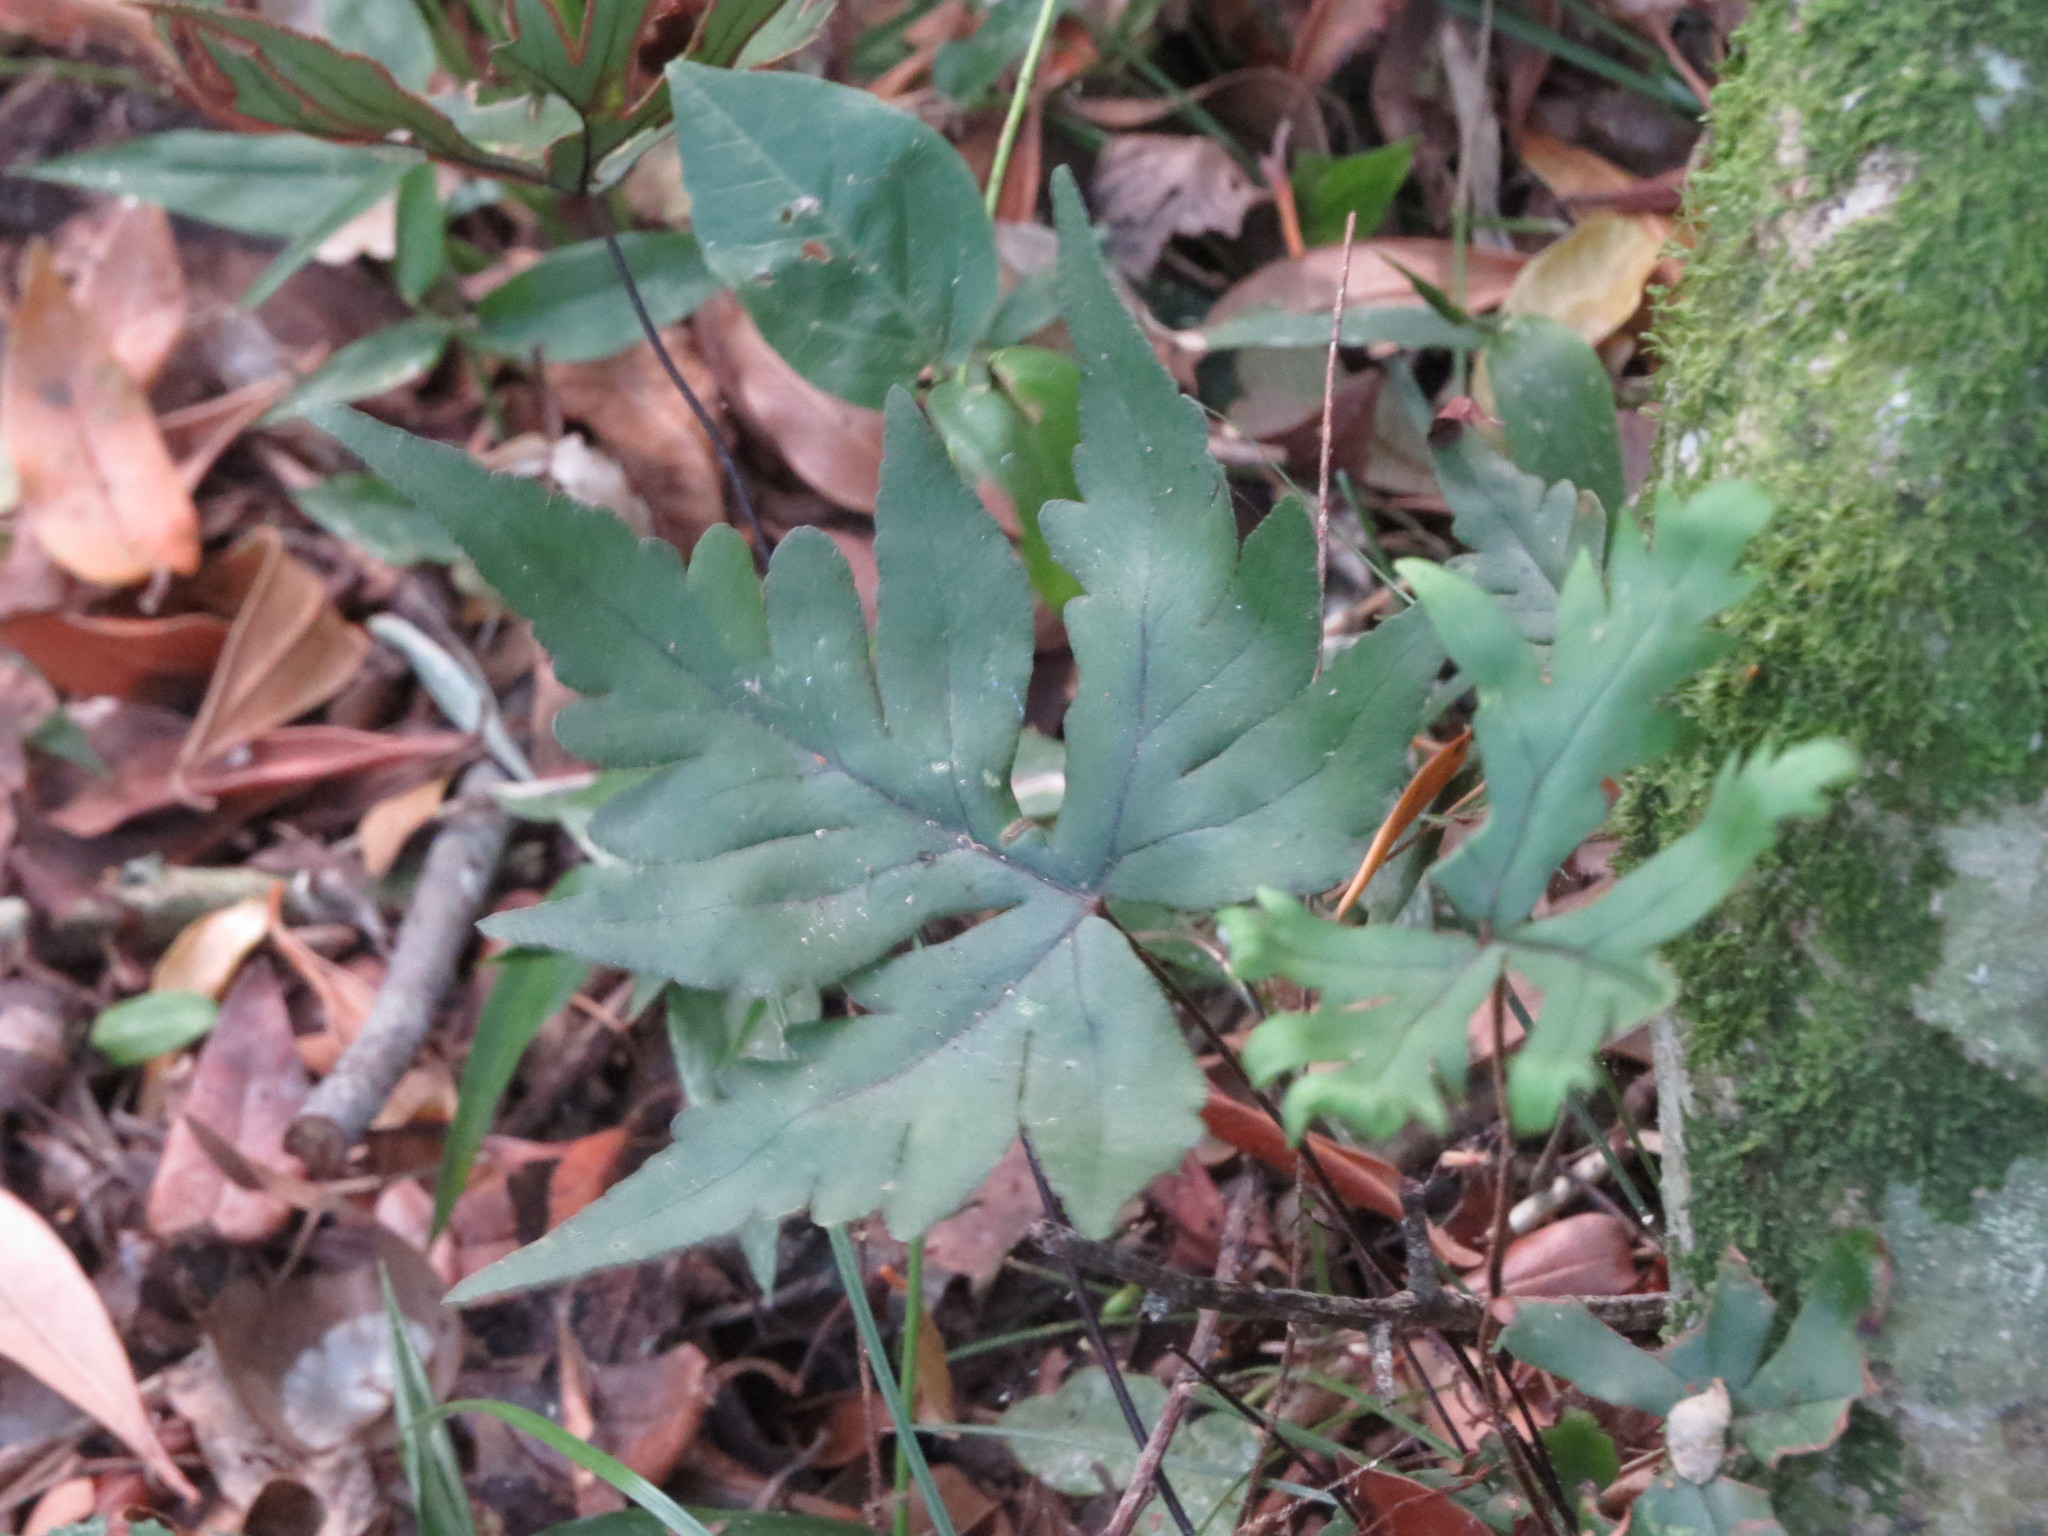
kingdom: Plantae
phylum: Tracheophyta
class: Polypodiopsida
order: Polypodiales
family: Pteridaceae
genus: Doryopteris
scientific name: Doryopteris lorentzii
